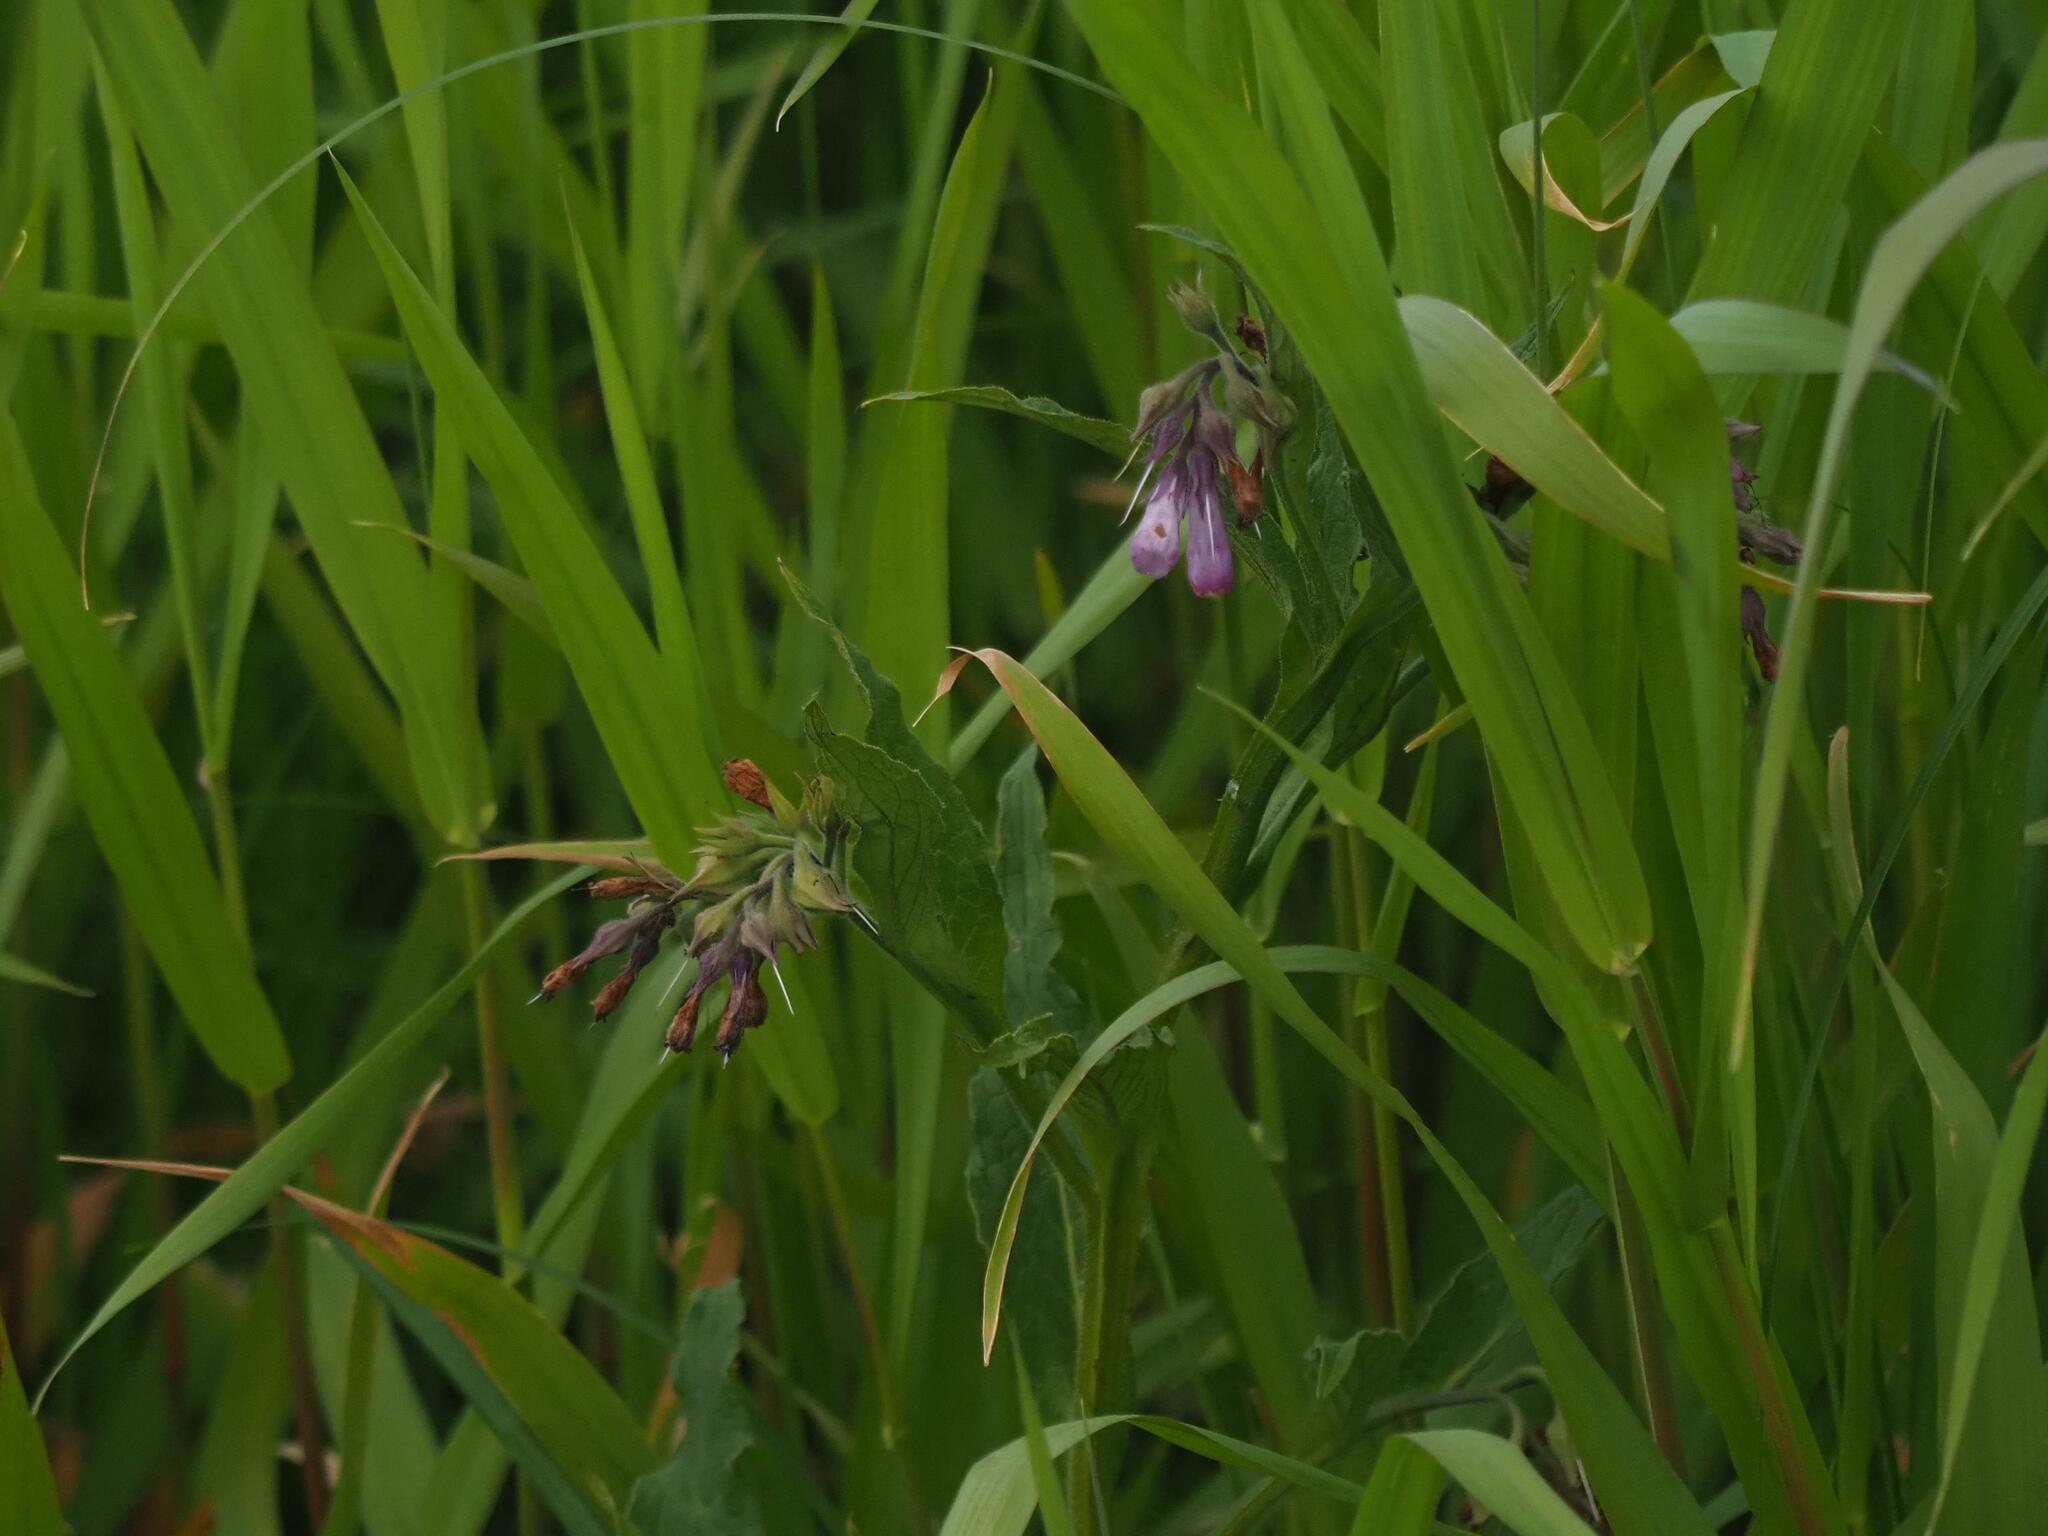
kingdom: Plantae
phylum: Tracheophyta
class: Magnoliopsida
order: Boraginales
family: Boraginaceae
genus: Symphytum
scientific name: Symphytum officinale
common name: Common comfrey
